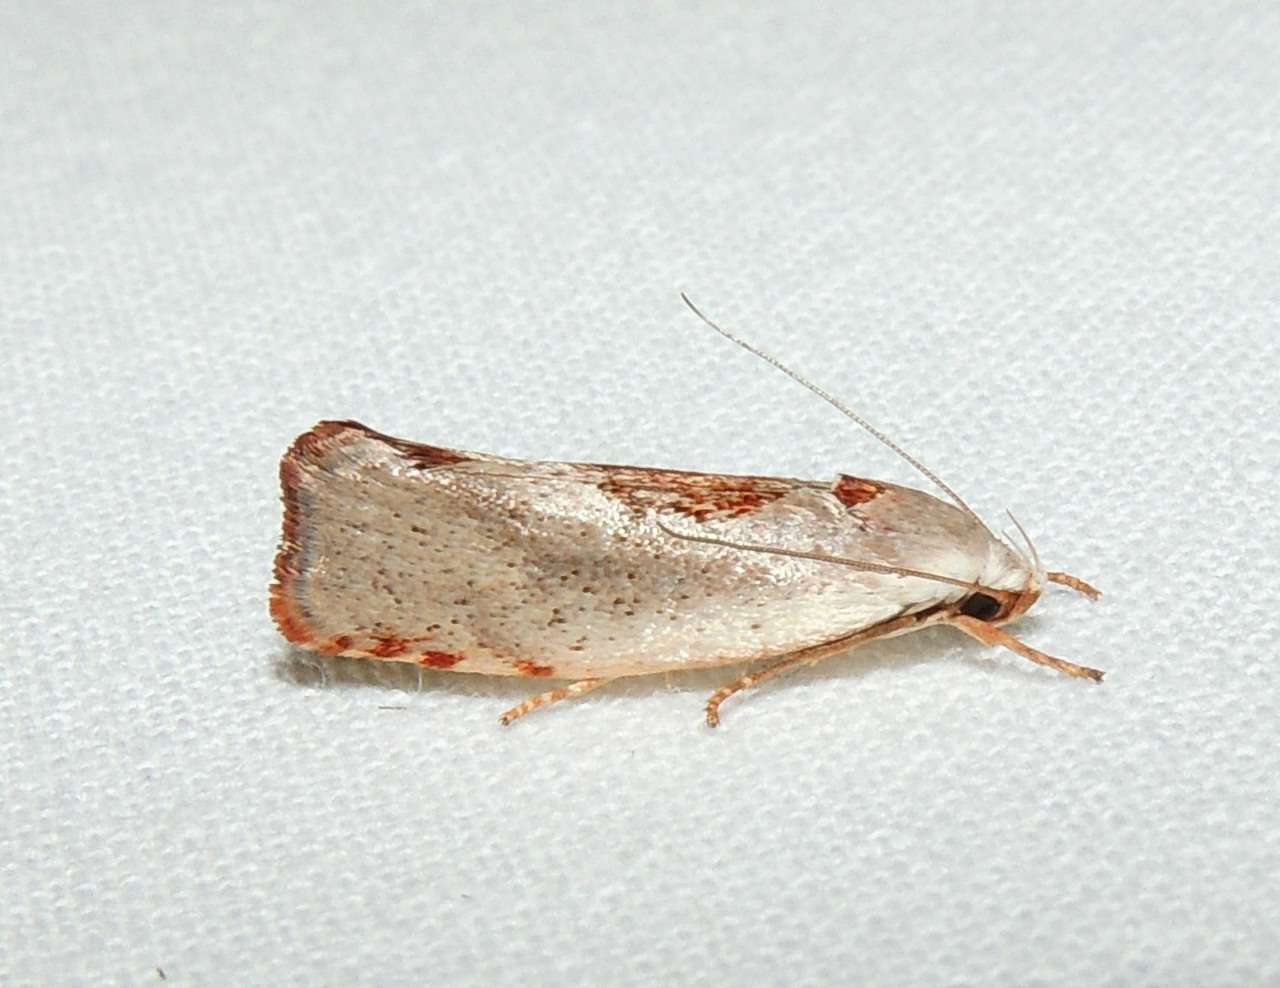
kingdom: Animalia
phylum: Arthropoda
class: Insecta
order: Lepidoptera
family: Xyloryctidae
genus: Tymbophora
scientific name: Tymbophora peltastis
